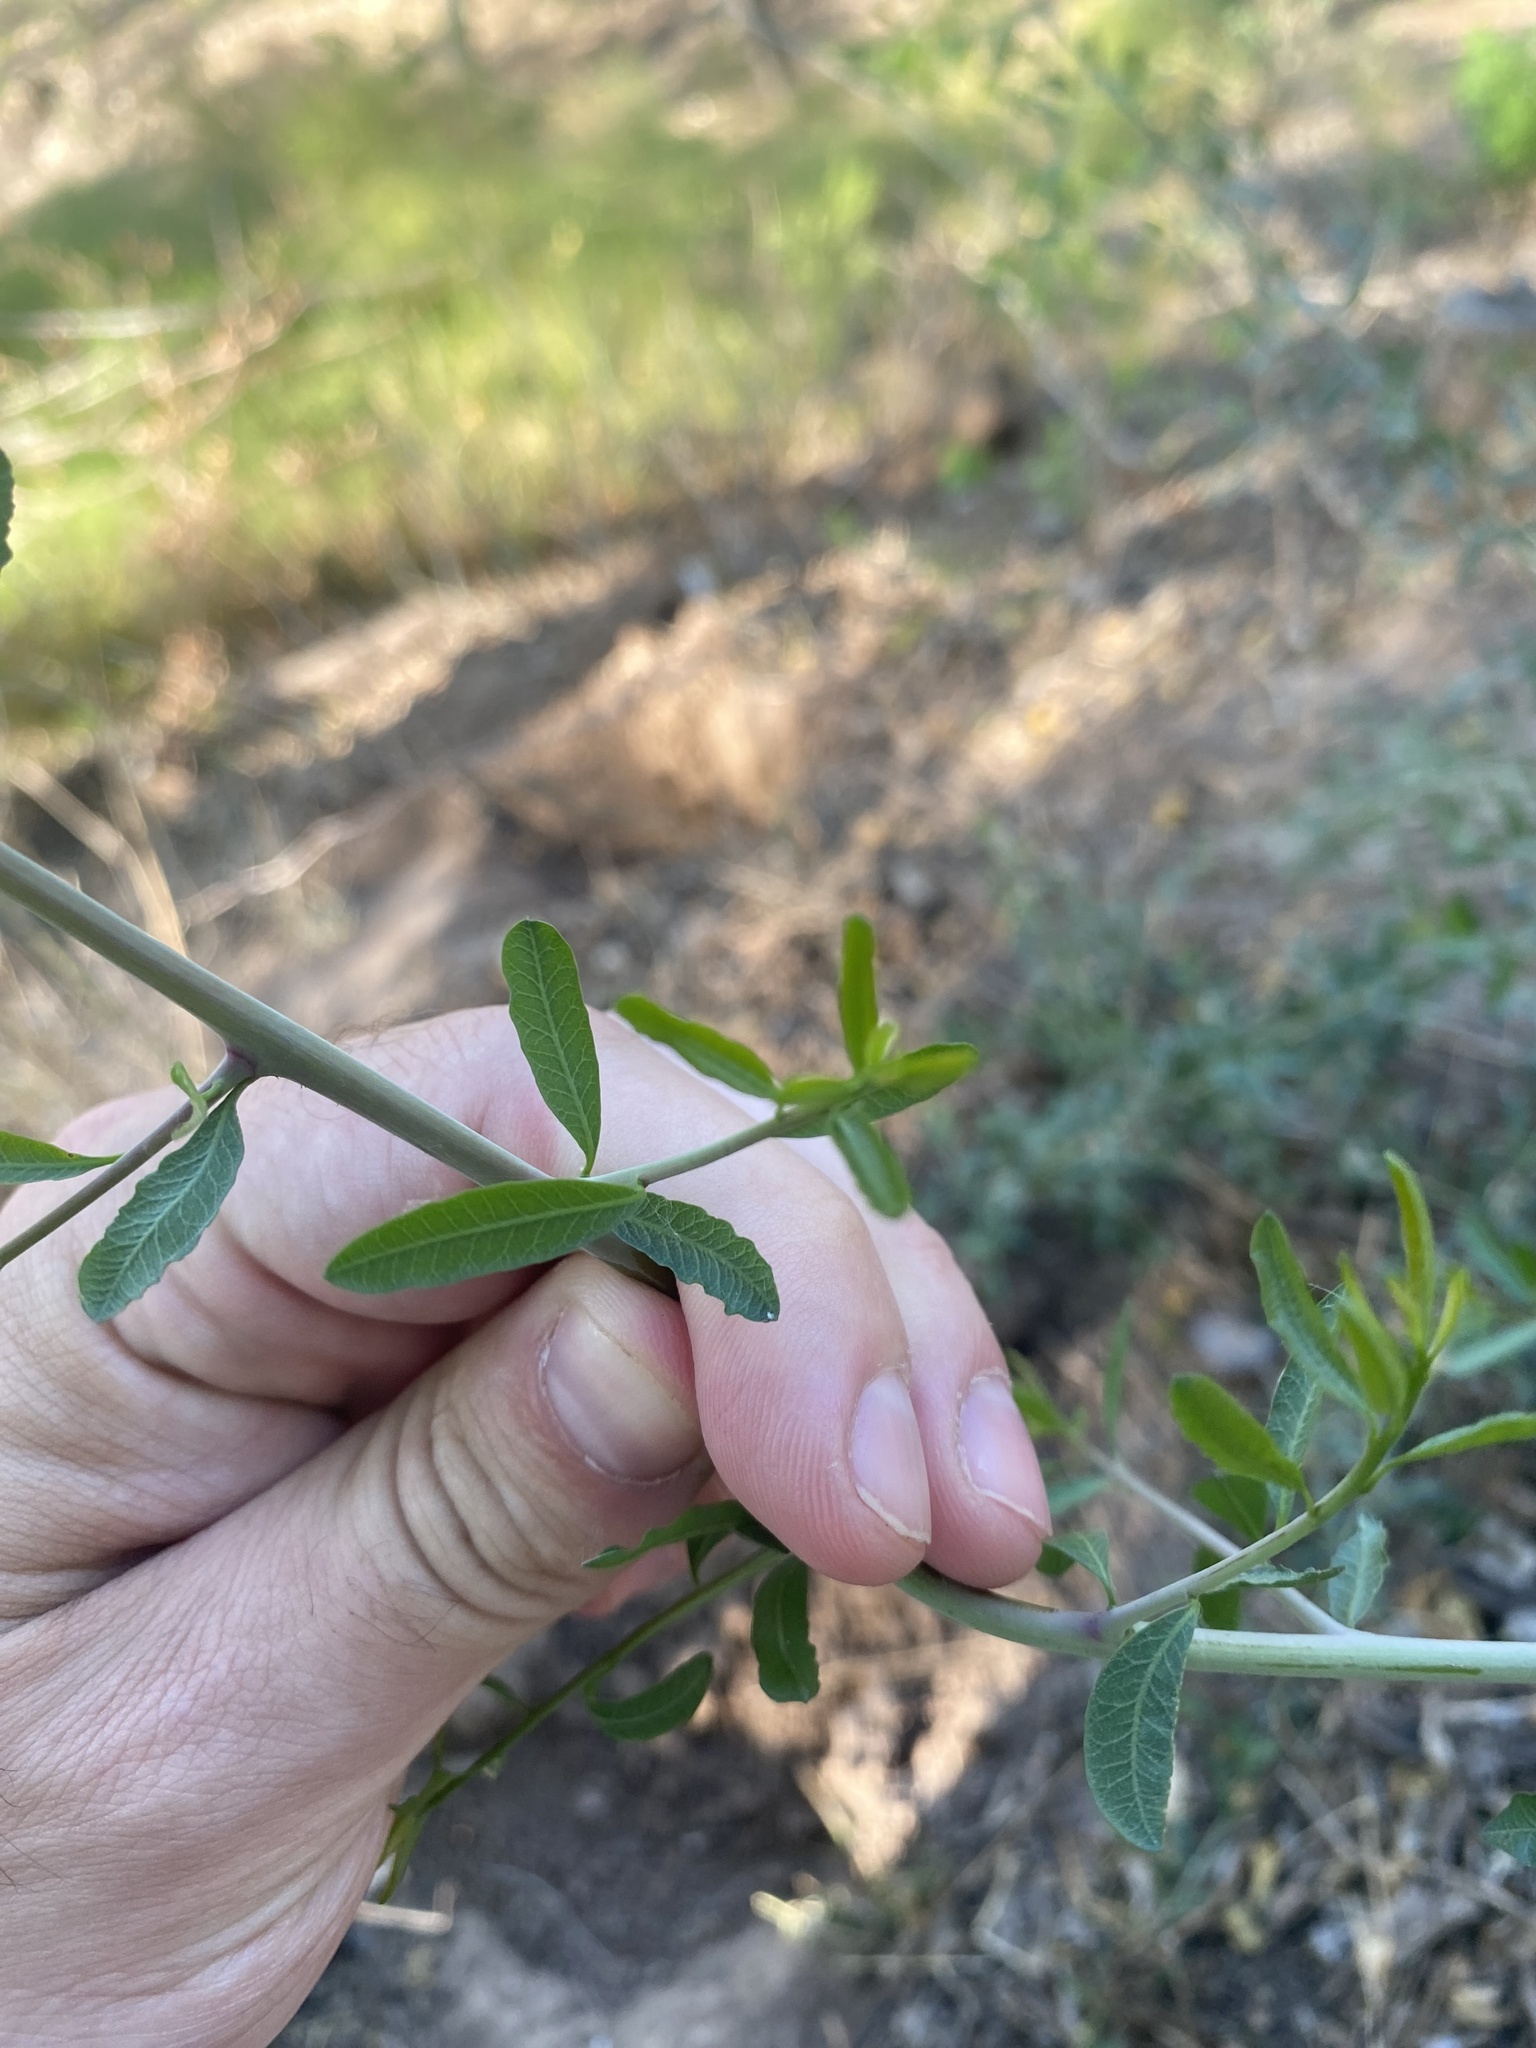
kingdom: Plantae
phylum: Tracheophyta
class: Magnoliopsida
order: Sapindales
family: Anacardiaceae
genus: Schinus
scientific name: Schinus longifolia
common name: Longleaf peppertree
